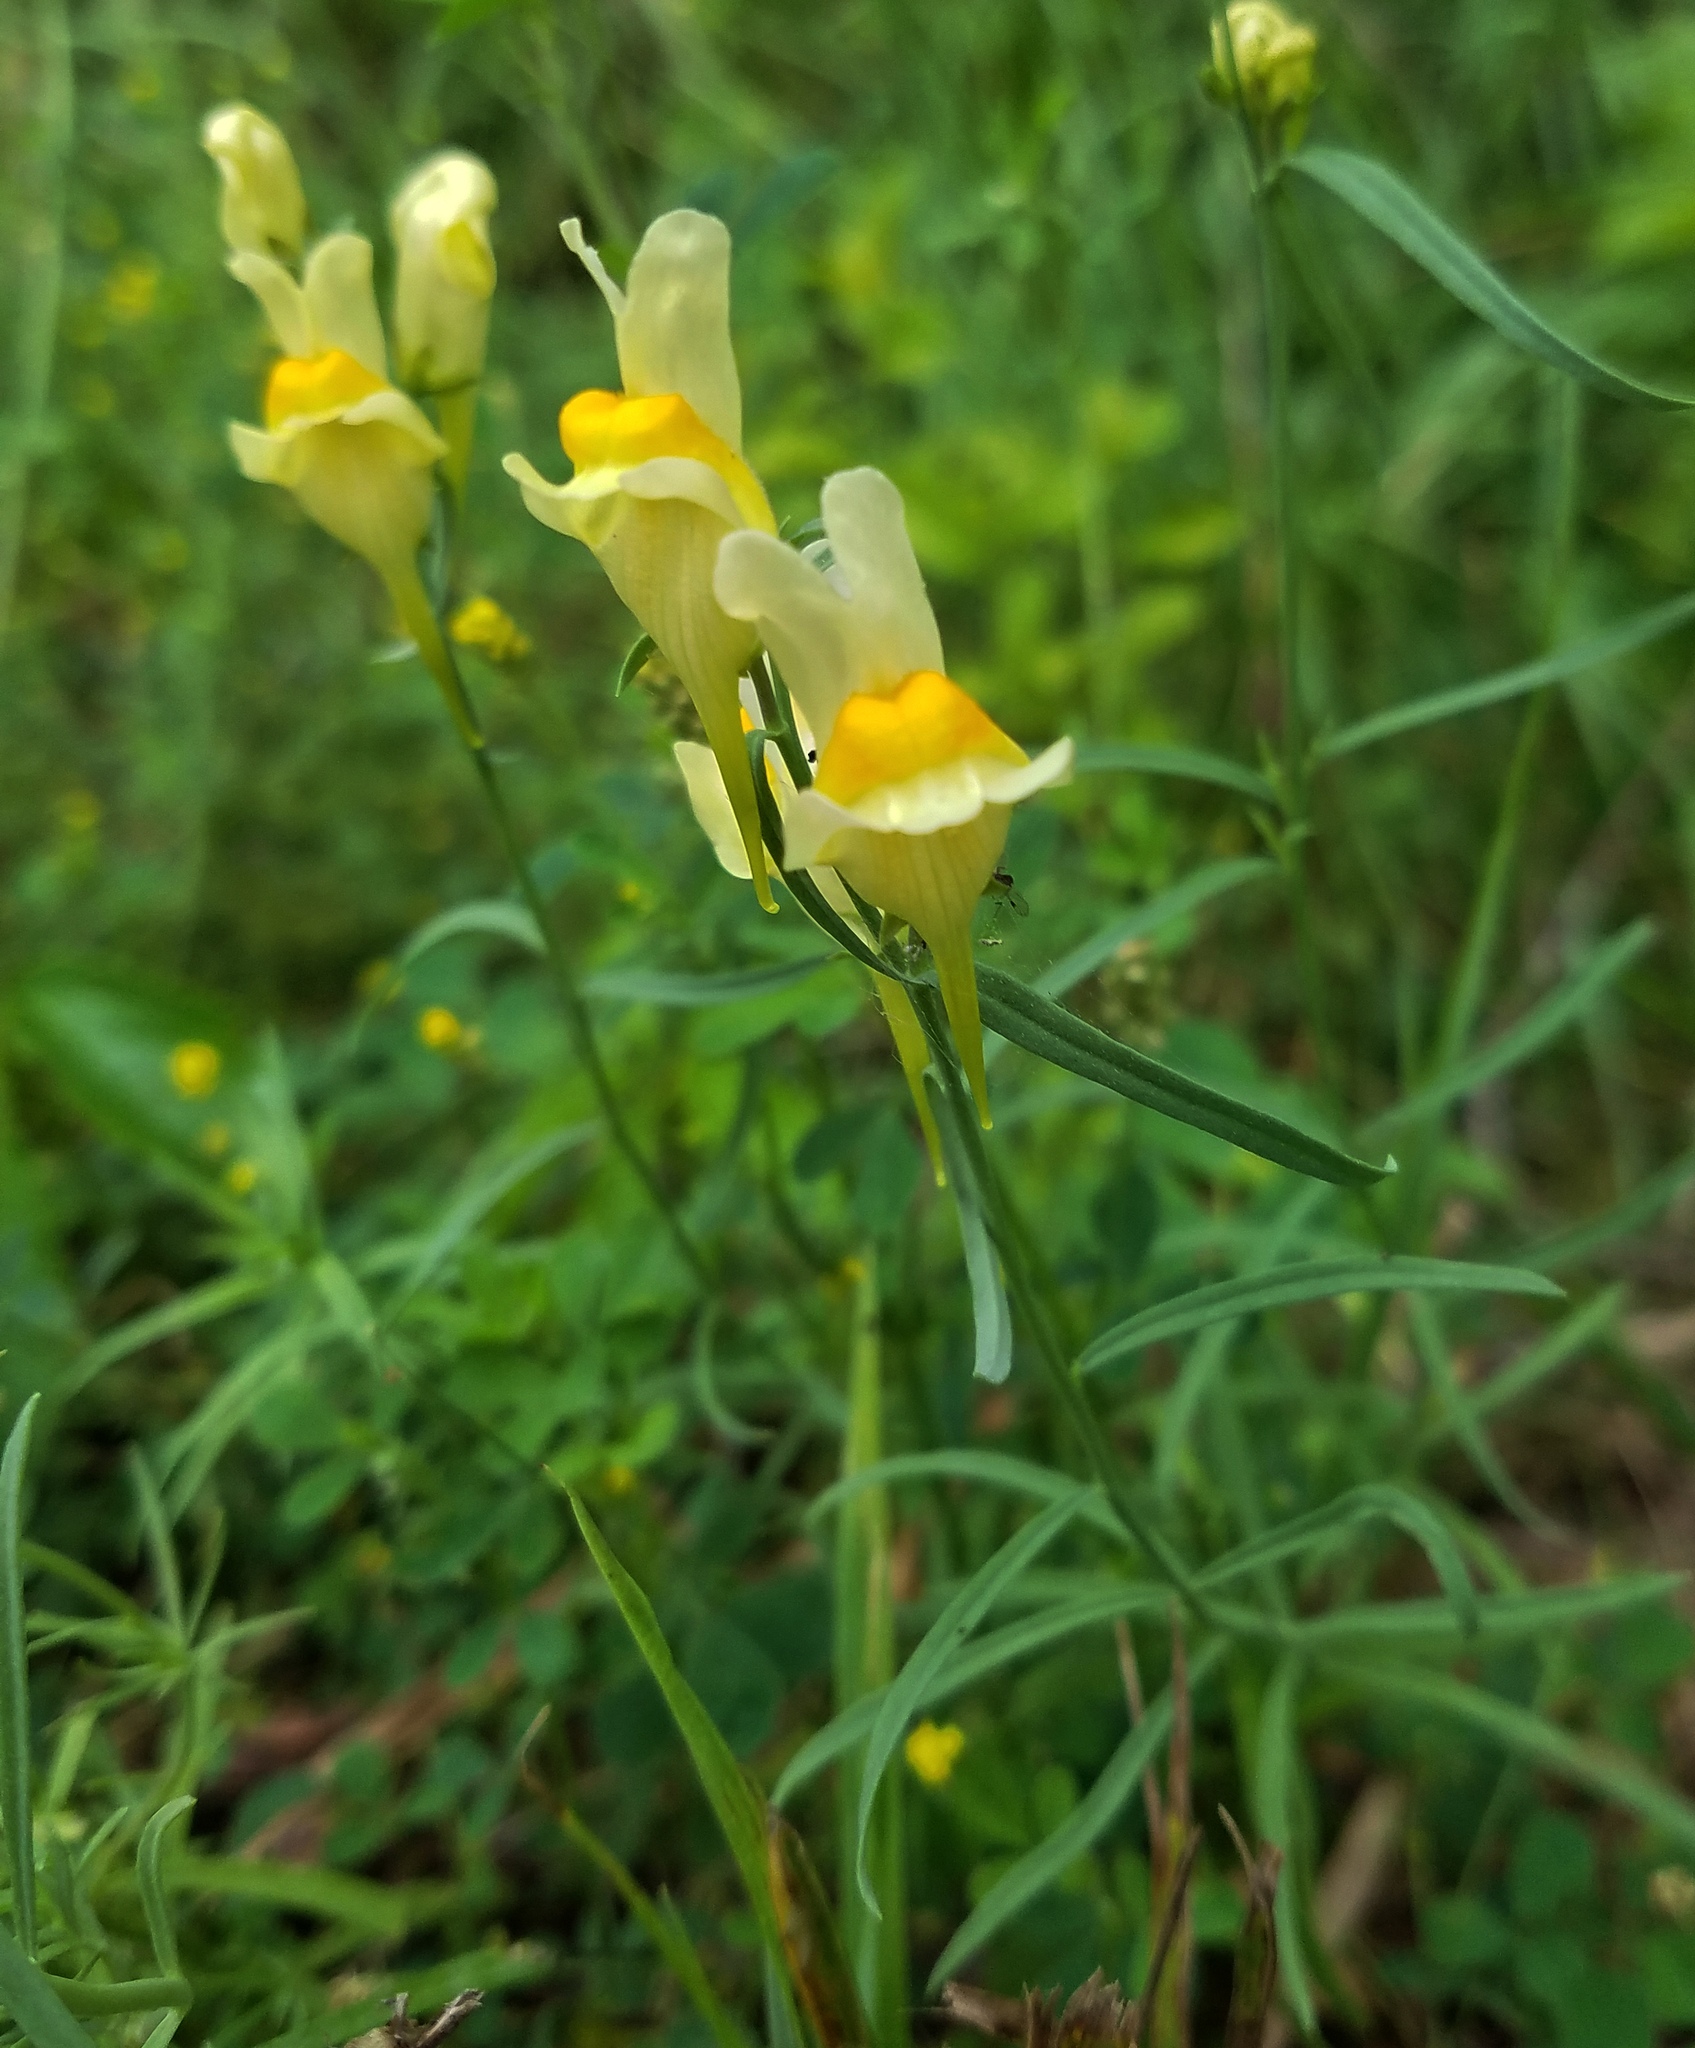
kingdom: Plantae
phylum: Tracheophyta
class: Magnoliopsida
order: Lamiales
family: Plantaginaceae
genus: Linaria
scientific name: Linaria vulgaris
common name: Butter and eggs
